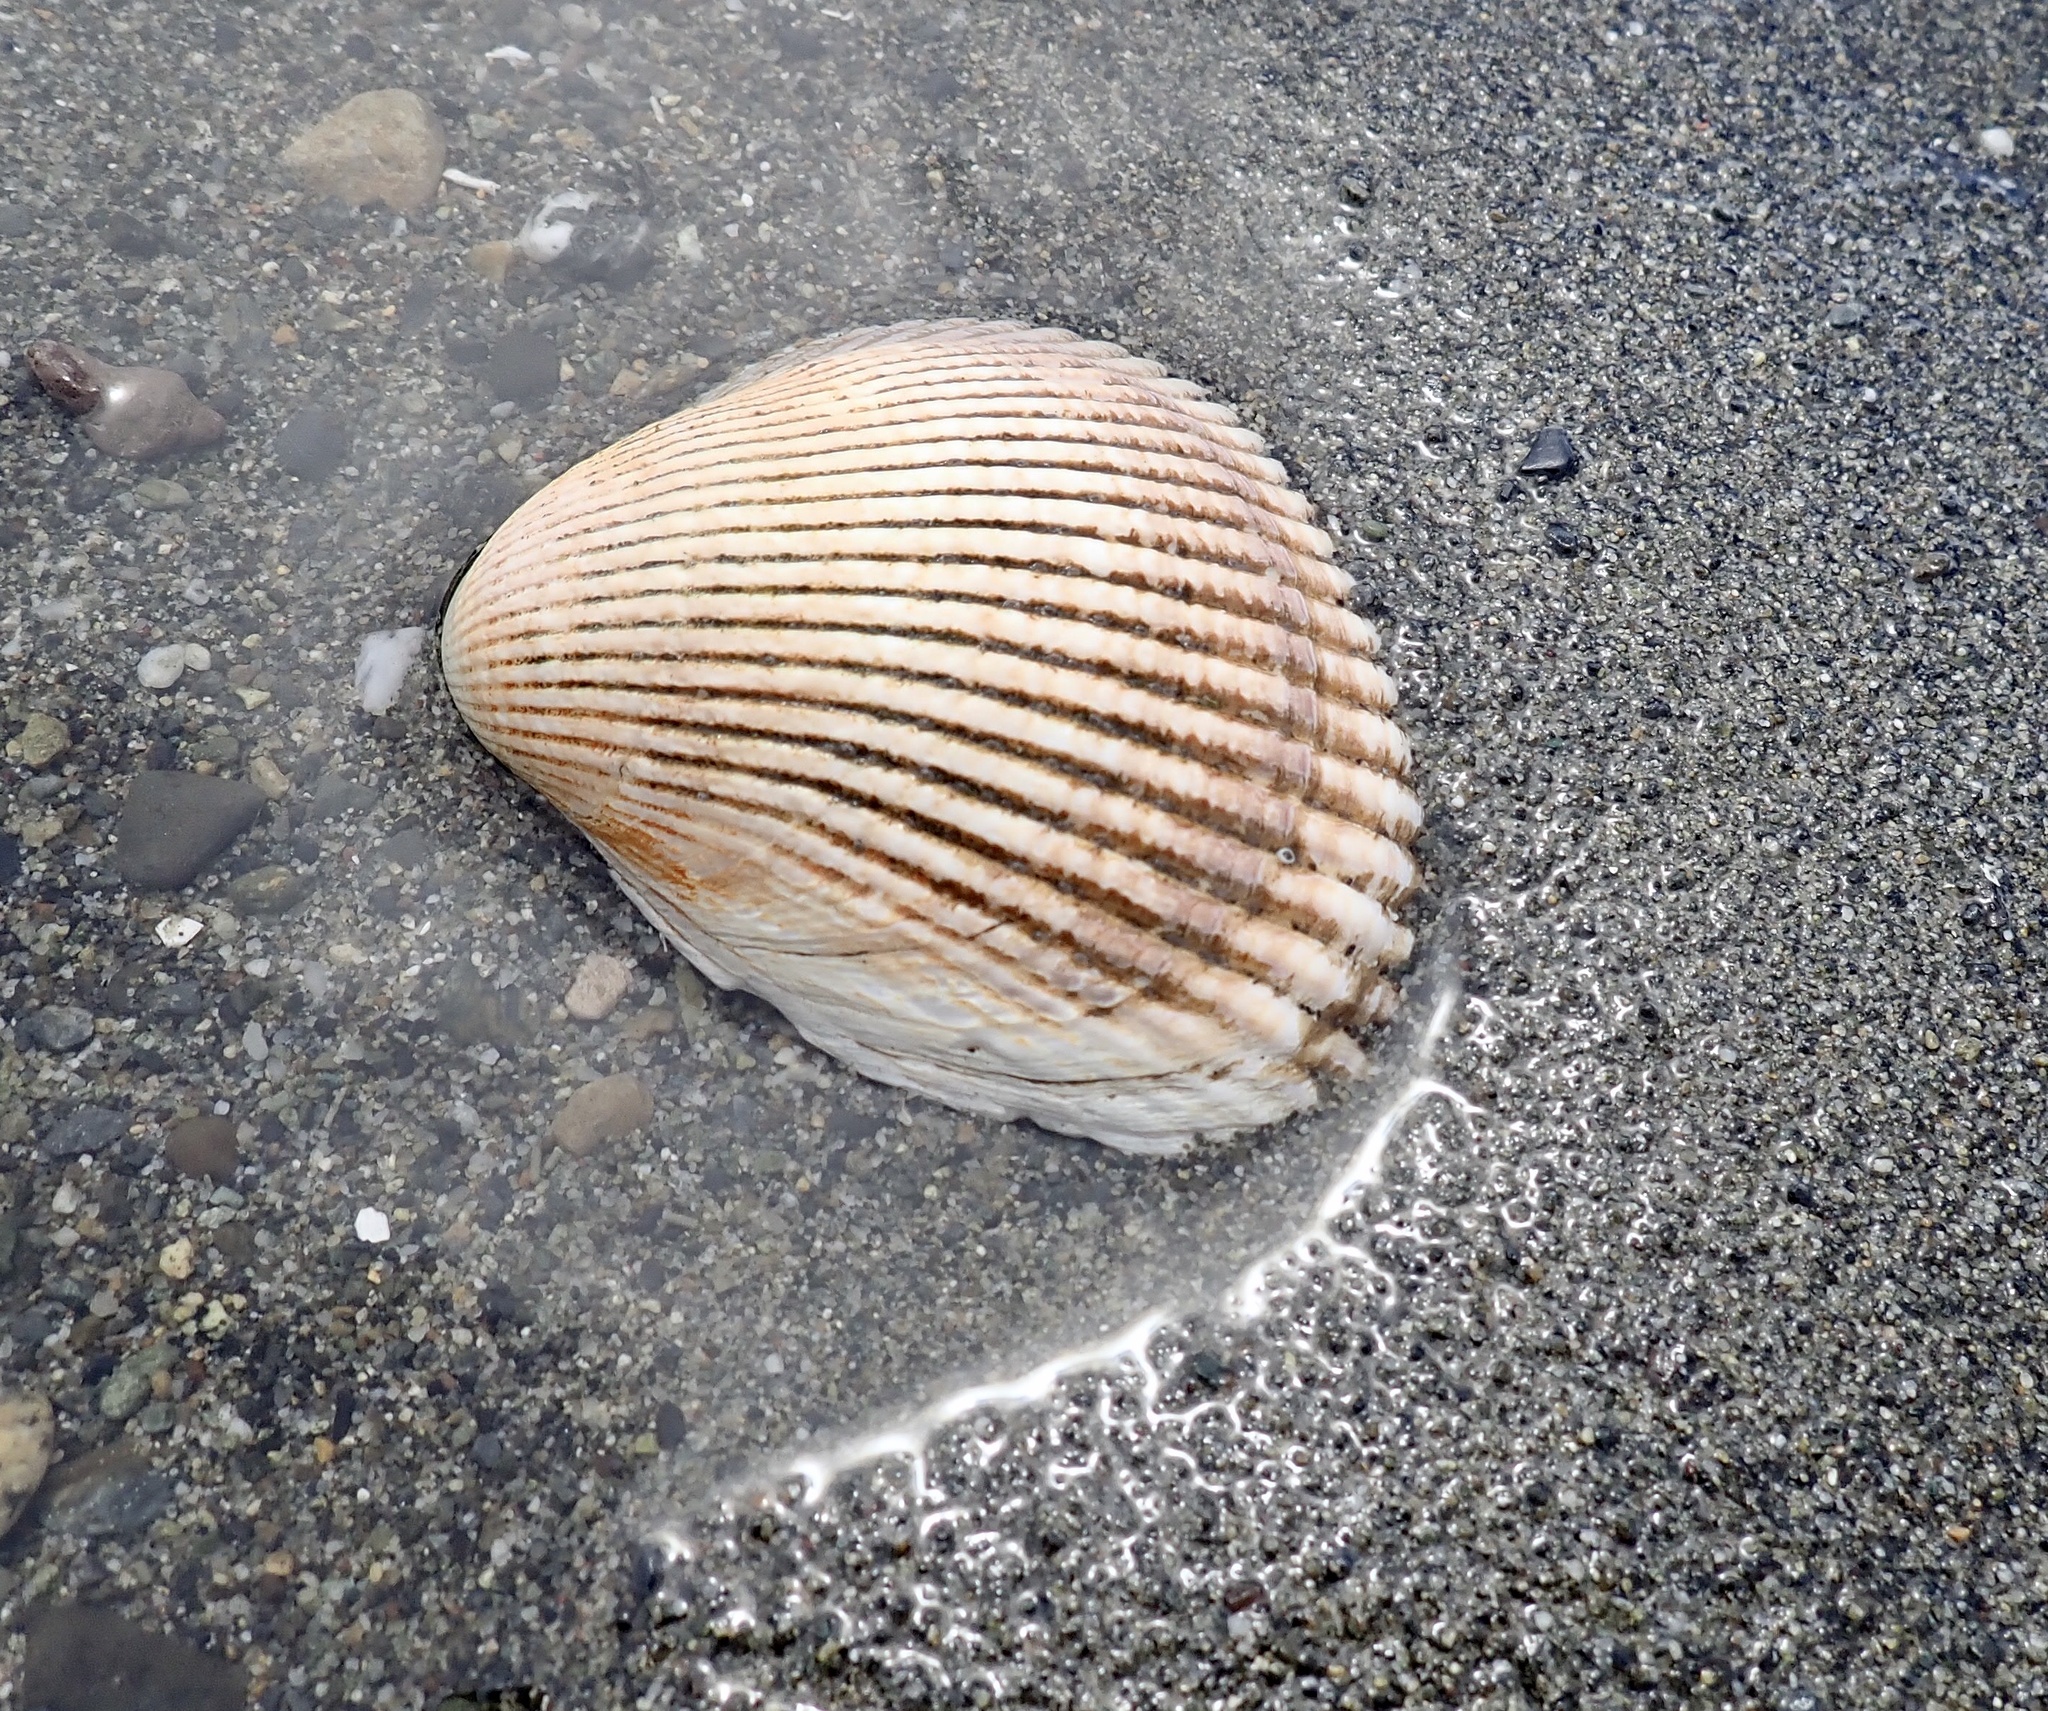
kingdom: Animalia
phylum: Mollusca
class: Bivalvia
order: Cardiida
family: Cardiidae
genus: Clinocardium
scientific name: Clinocardium nuttallii
